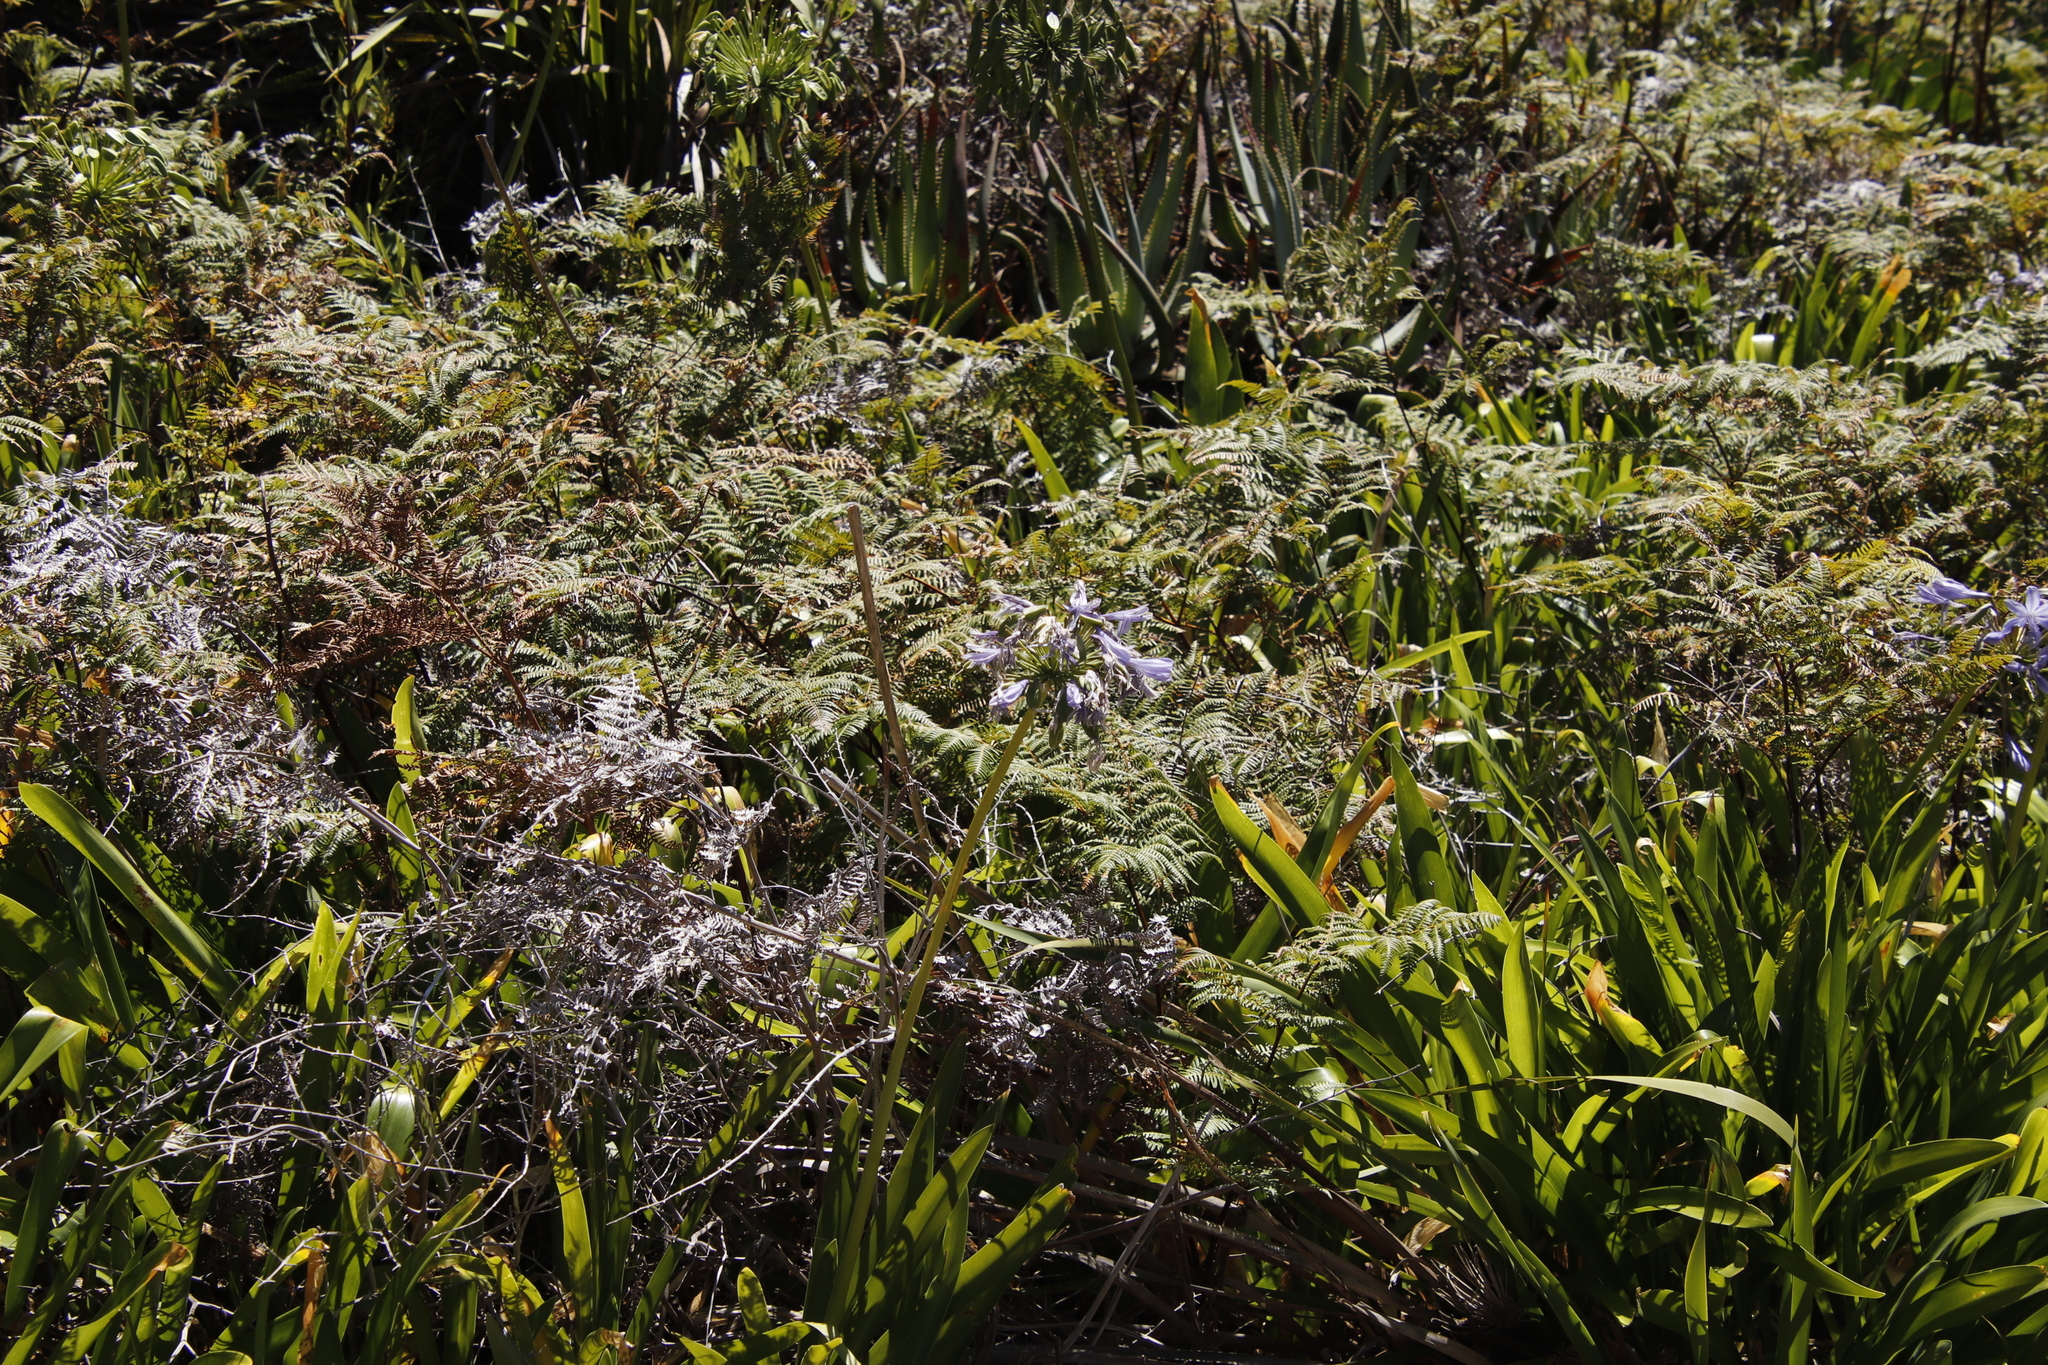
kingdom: Plantae
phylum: Tracheophyta
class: Polypodiopsida
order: Polypodiales
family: Dennstaedtiaceae
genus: Pteridium
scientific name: Pteridium aquilinum
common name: Bracken
